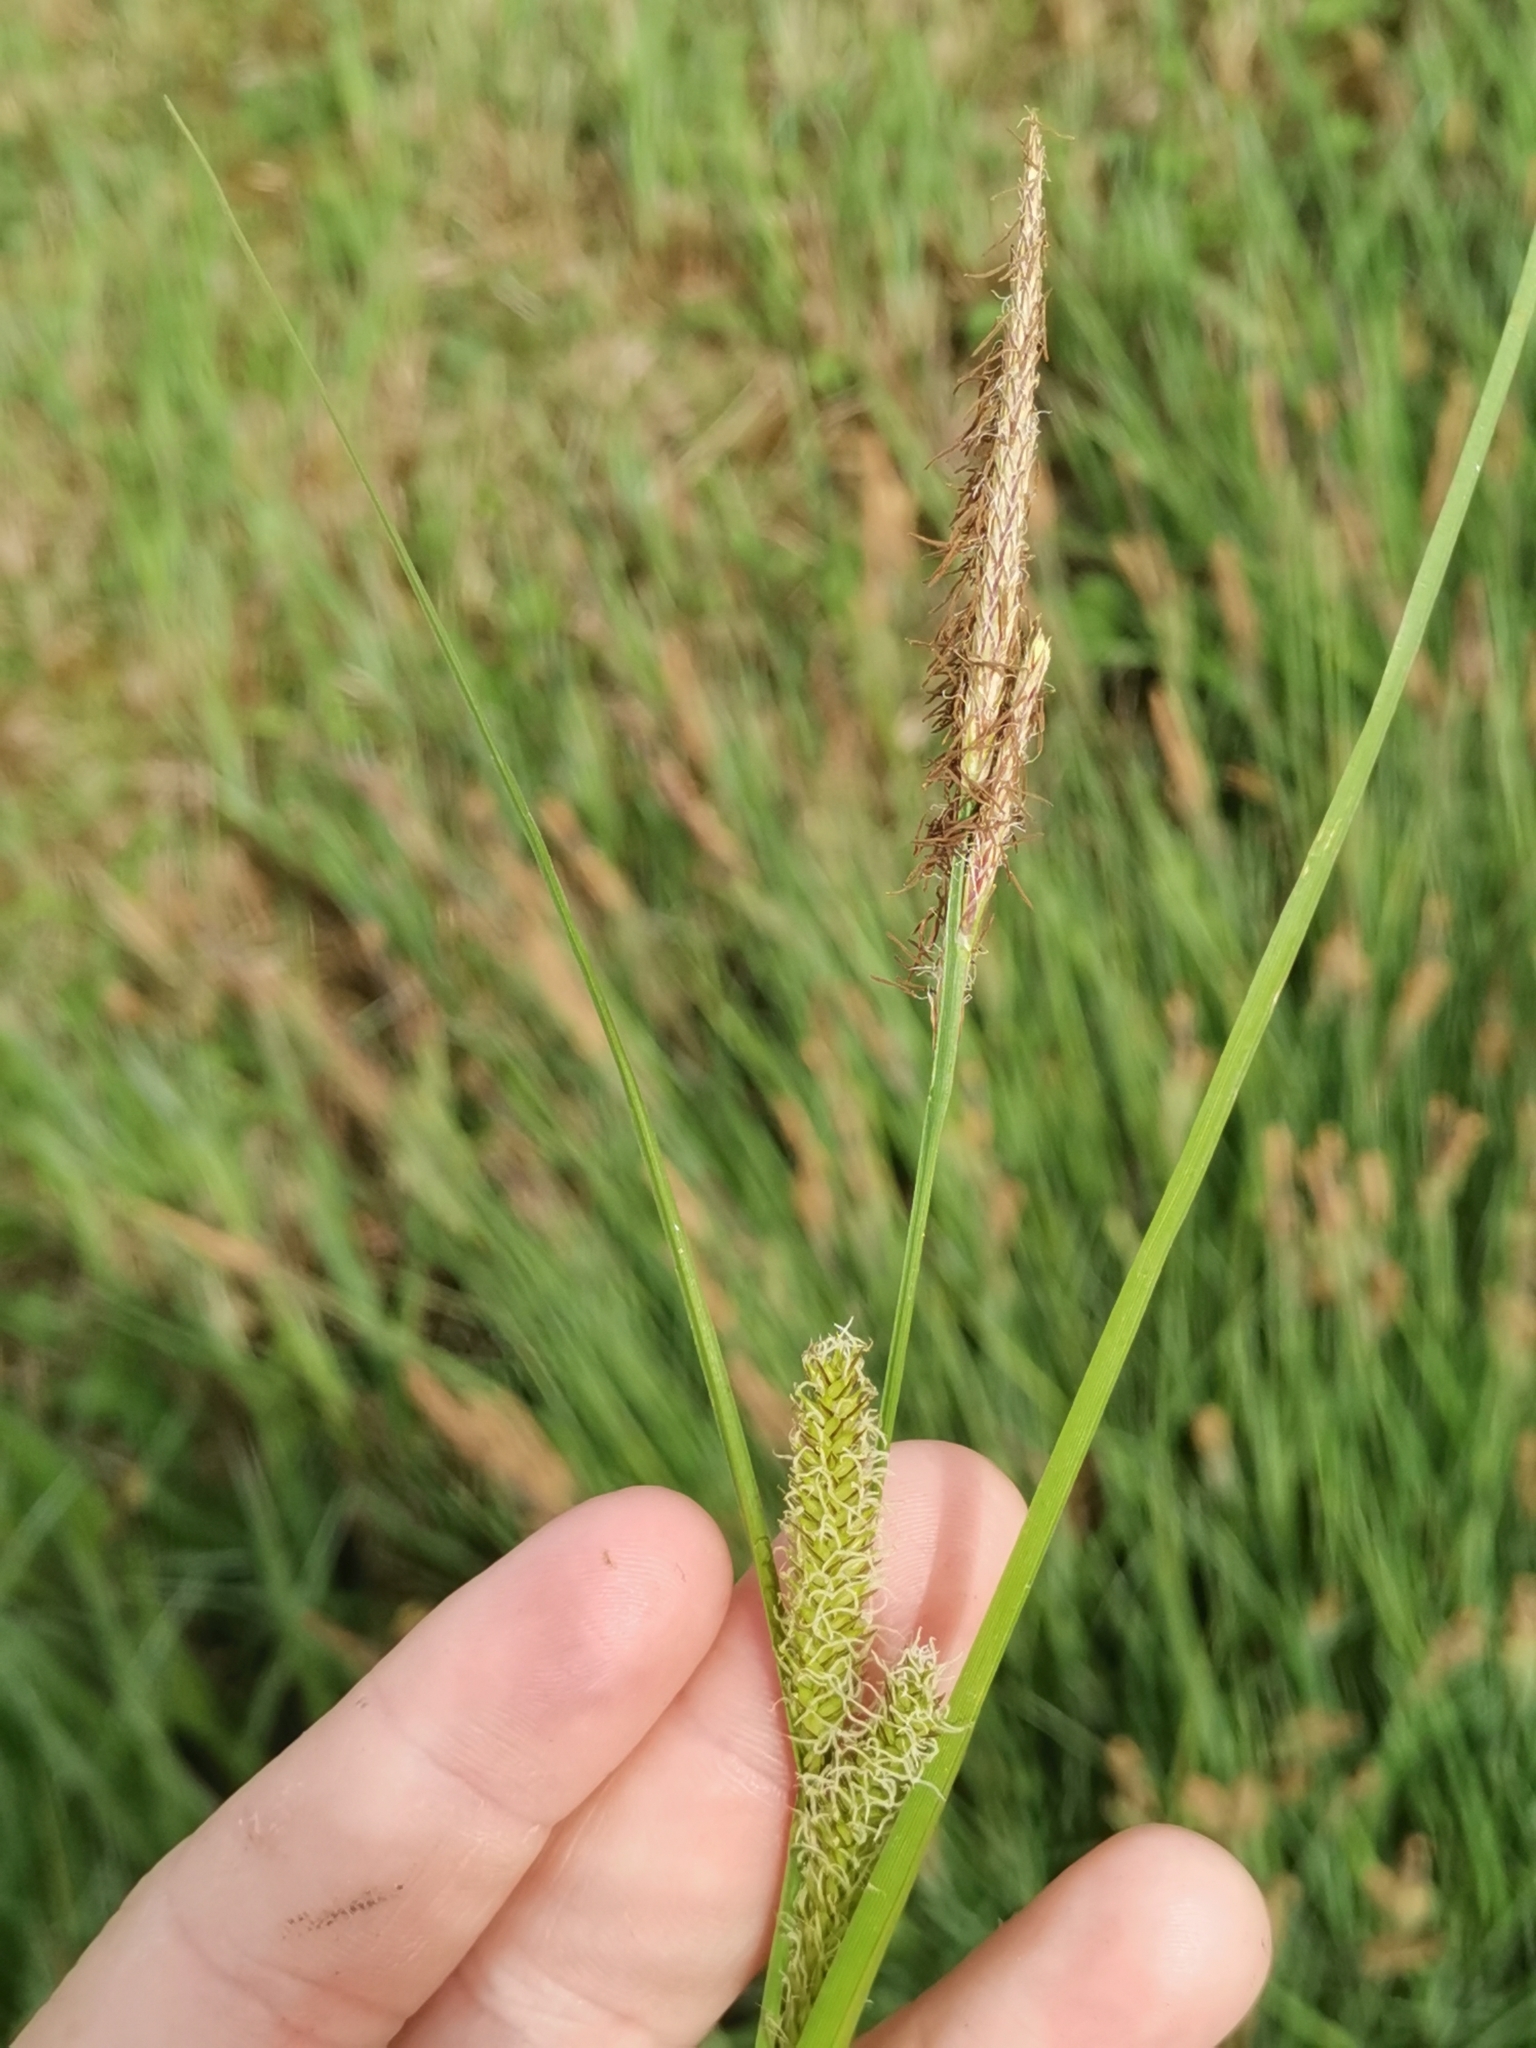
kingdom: Plantae
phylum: Tracheophyta
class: Liliopsida
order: Poales
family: Cyperaceae
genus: Carex
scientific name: Carex vesicaria
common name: Bladder-sedge
